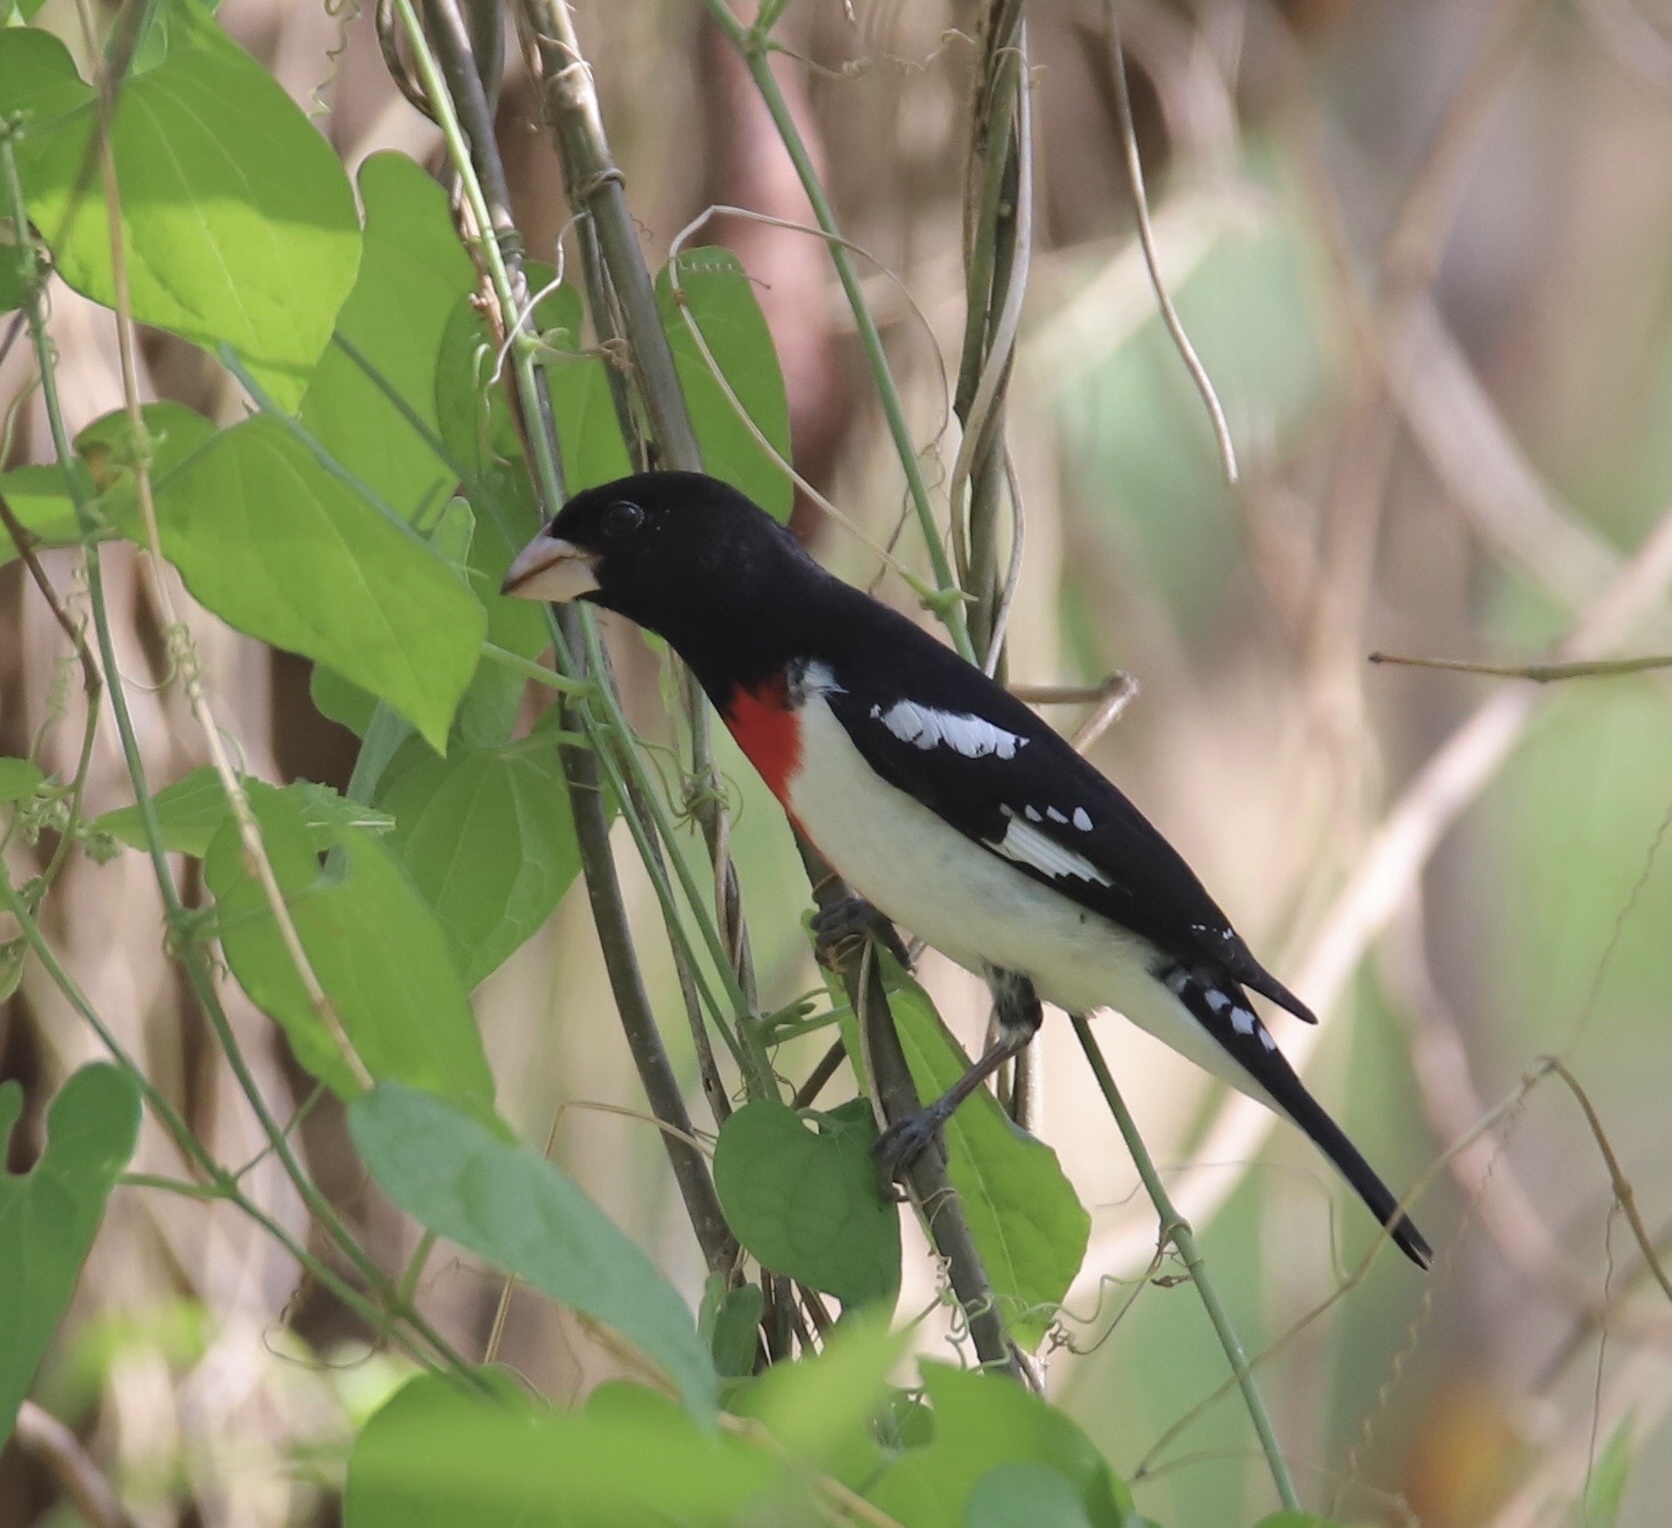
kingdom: Animalia
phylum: Chordata
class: Aves
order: Passeriformes
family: Cardinalidae
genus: Pheucticus
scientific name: Pheucticus ludovicianus
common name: Rose-breasted grosbeak
